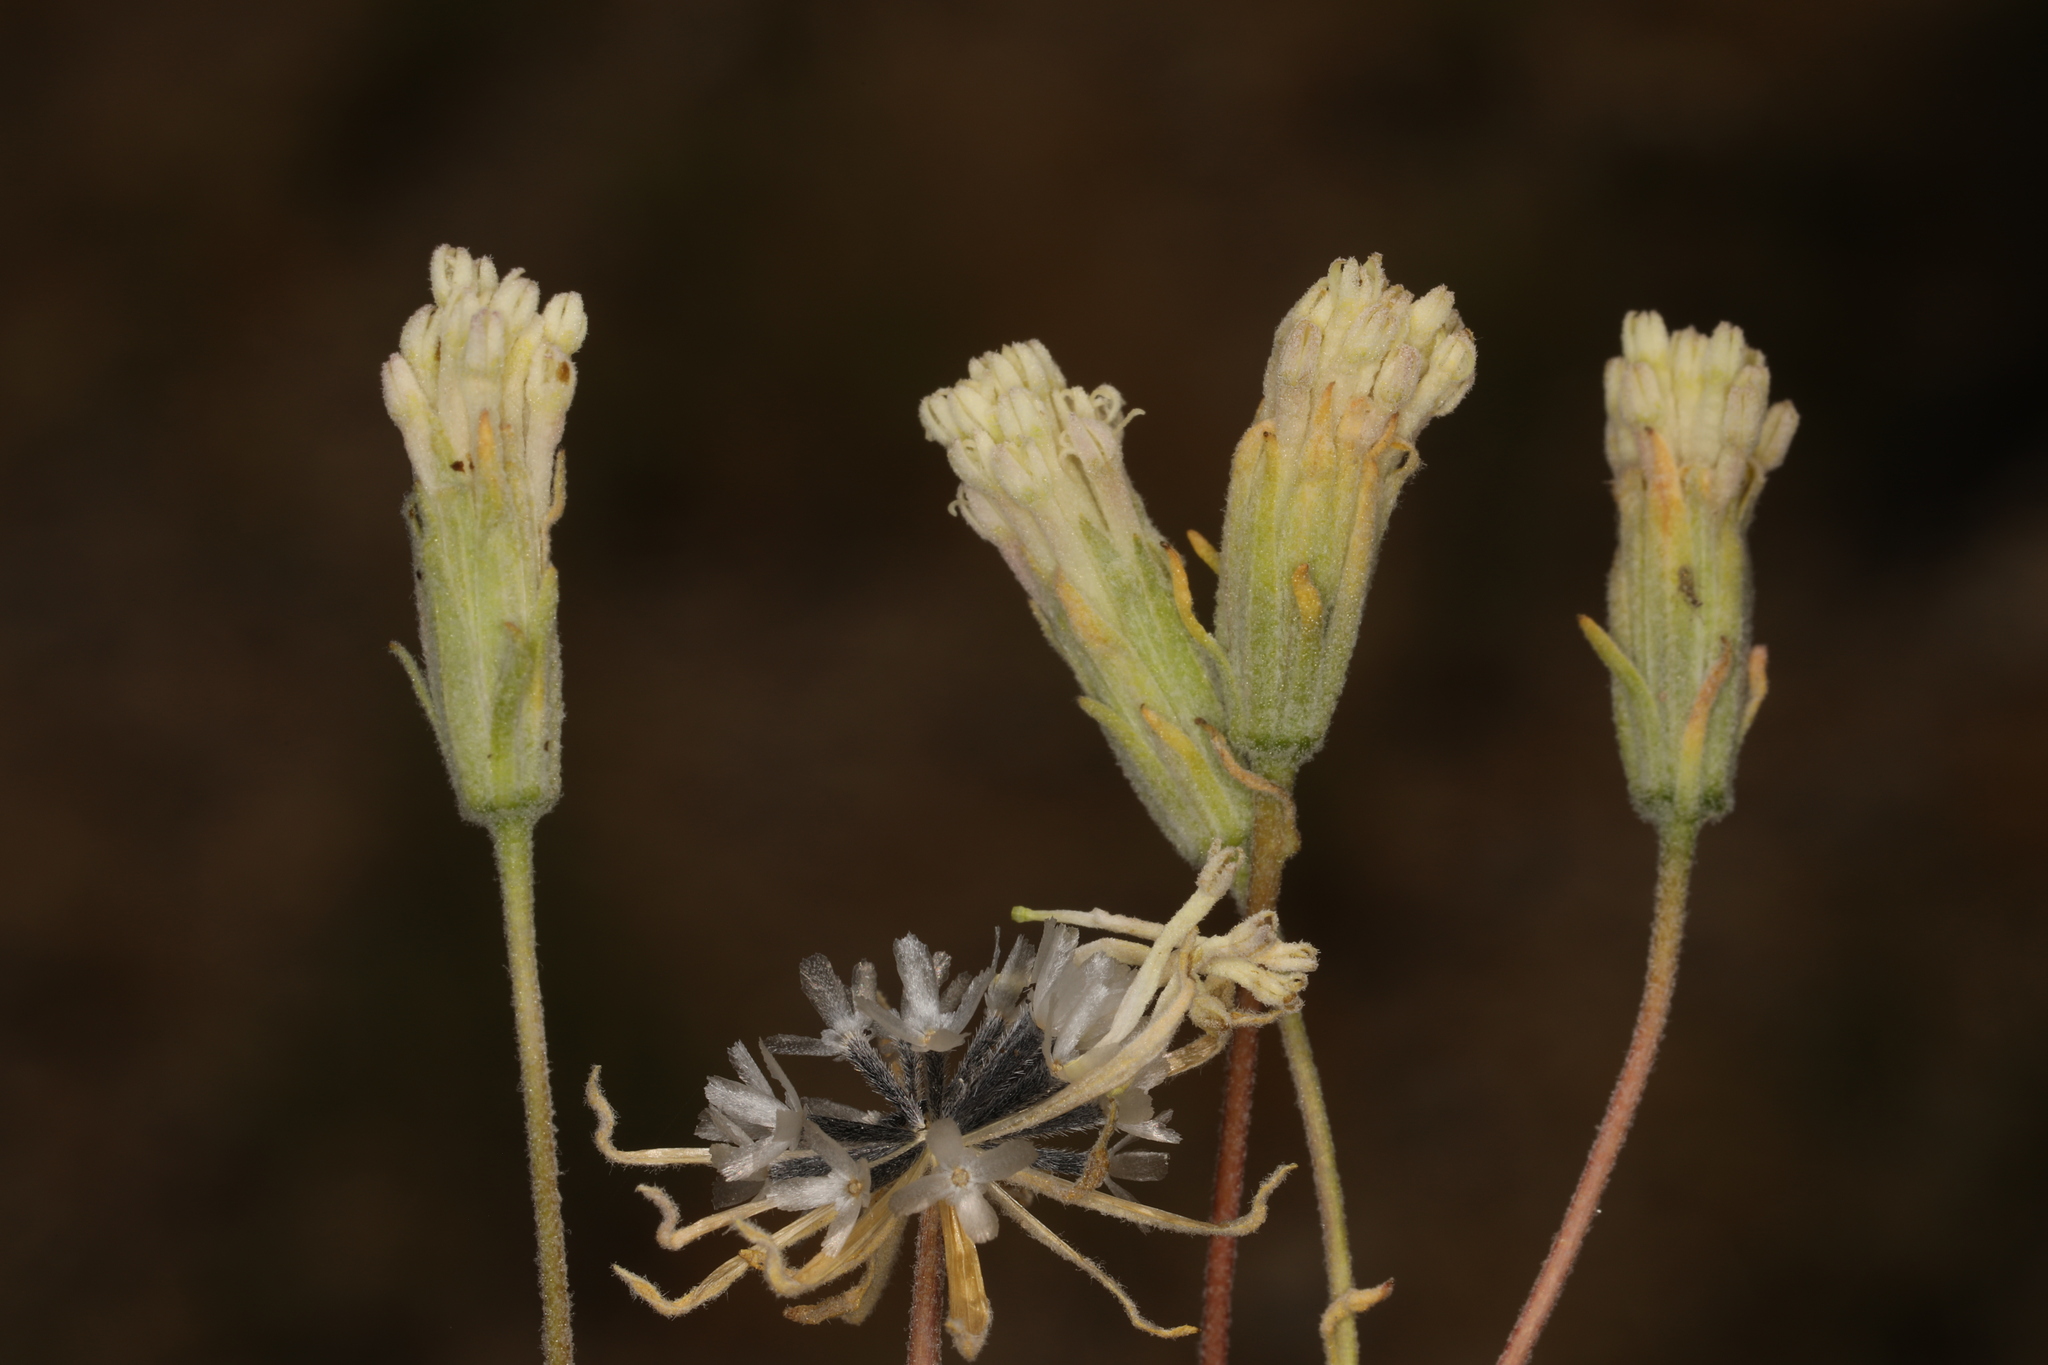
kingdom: Plantae
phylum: Tracheophyta
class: Magnoliopsida
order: Asterales
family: Asteraceae
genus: Chaenactis
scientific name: Chaenactis macrantha
